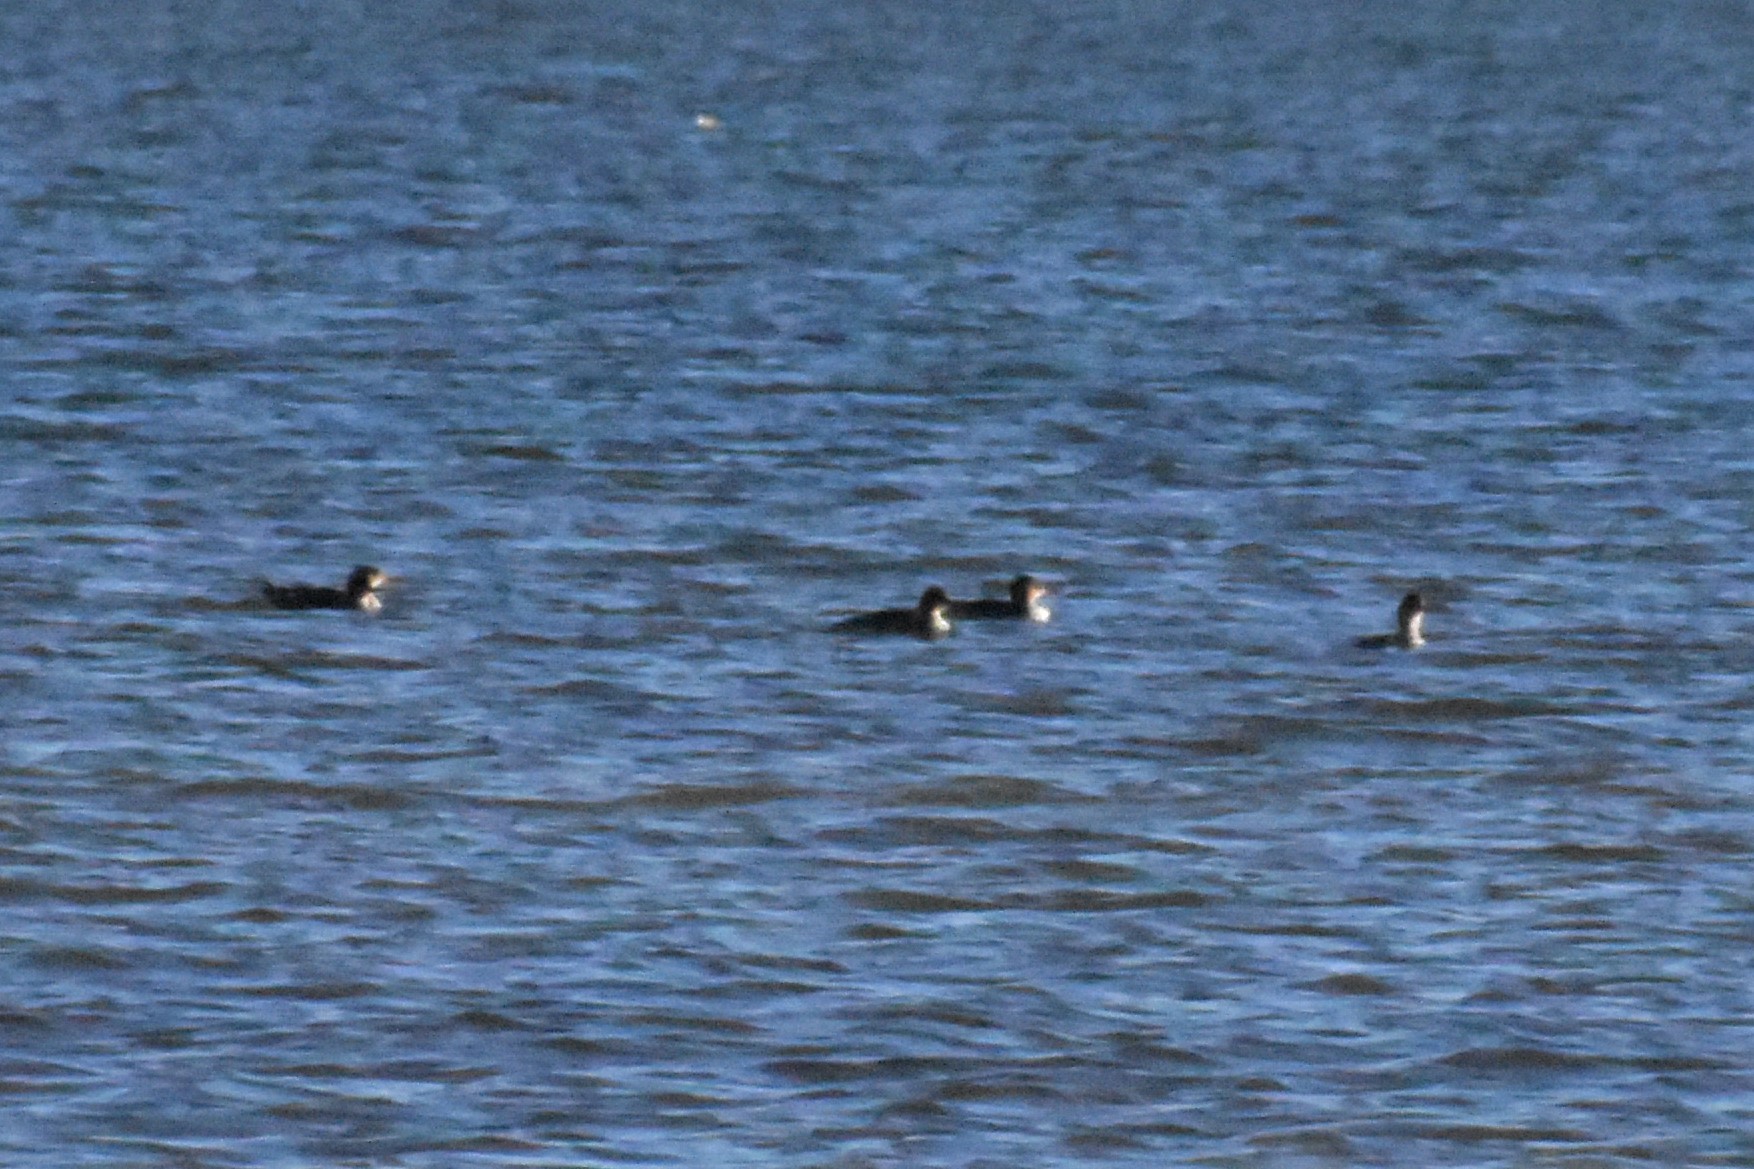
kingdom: Animalia
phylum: Chordata
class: Aves
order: Anseriformes
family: Anatidae
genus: Mergus
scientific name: Mergus serrator
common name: Red-breasted merganser
